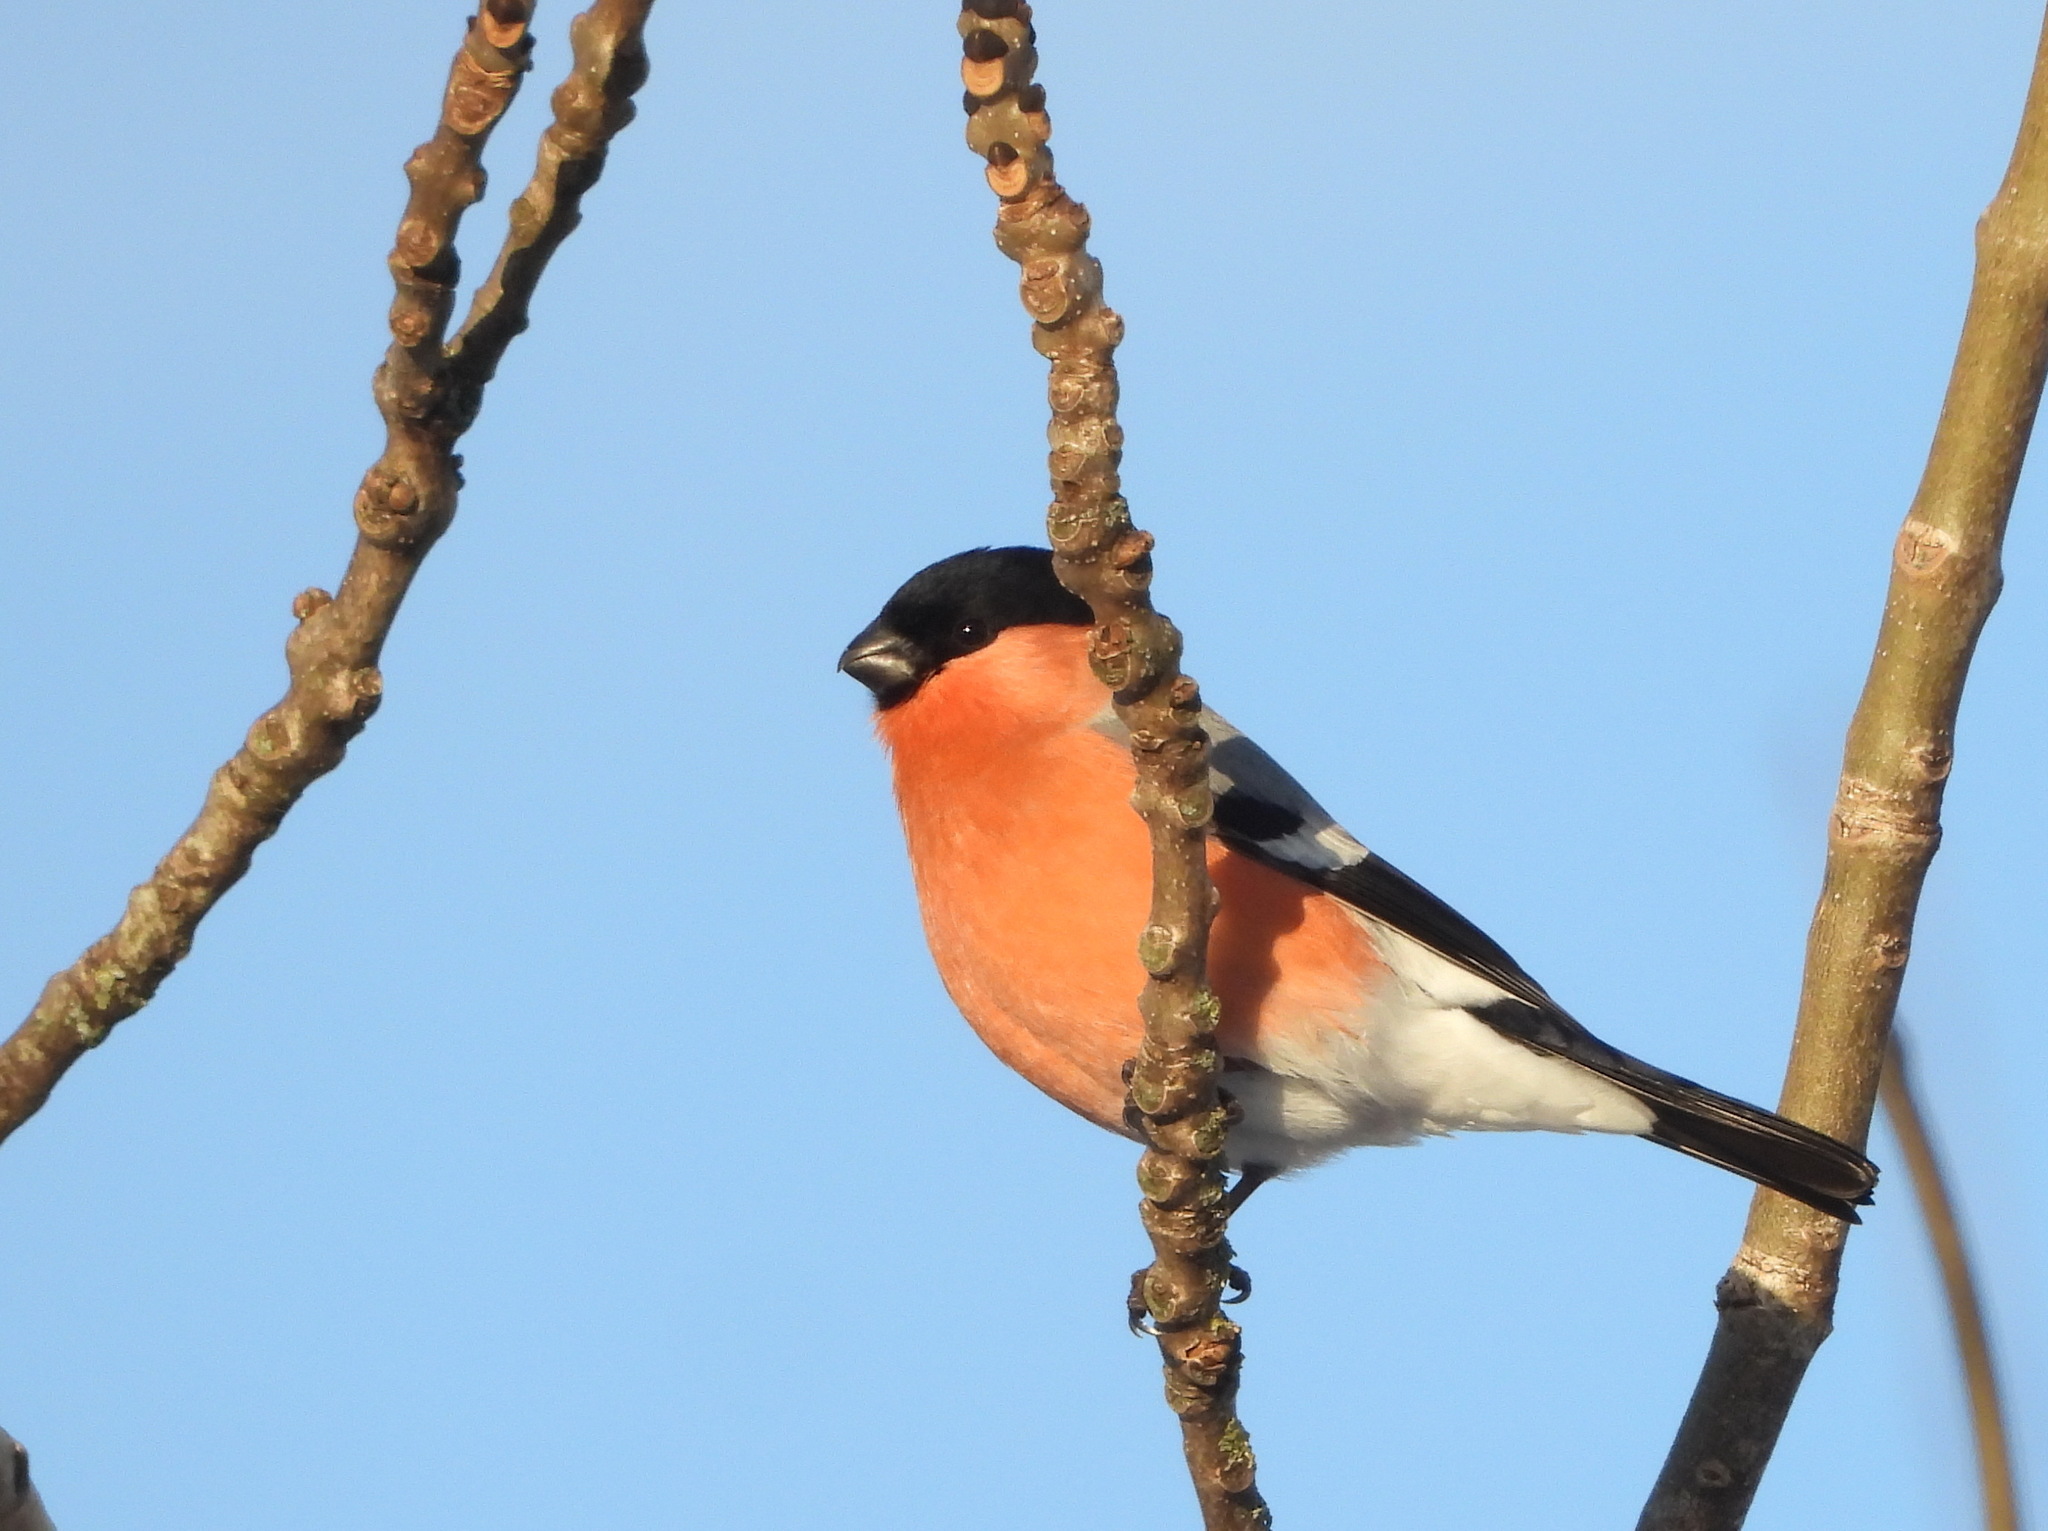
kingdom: Animalia
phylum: Chordata
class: Aves
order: Passeriformes
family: Fringillidae
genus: Pyrrhula
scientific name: Pyrrhula pyrrhula
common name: Eurasian bullfinch
